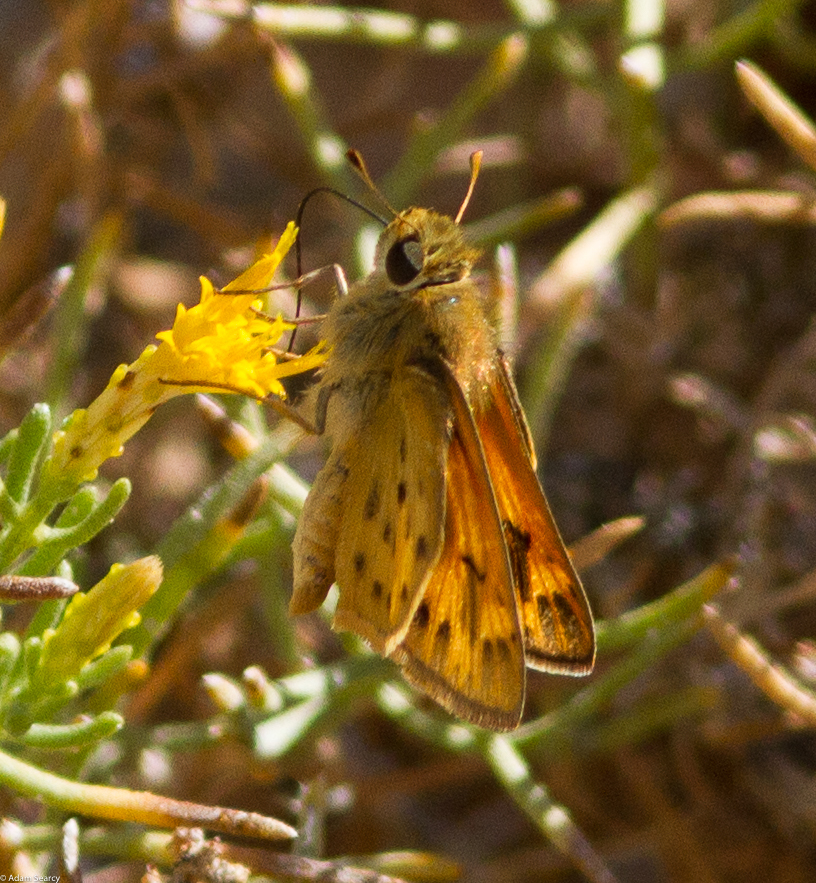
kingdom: Animalia
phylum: Arthropoda
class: Insecta
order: Lepidoptera
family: Hesperiidae
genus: Hylephila
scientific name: Hylephila phyleus
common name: Fiery skipper
